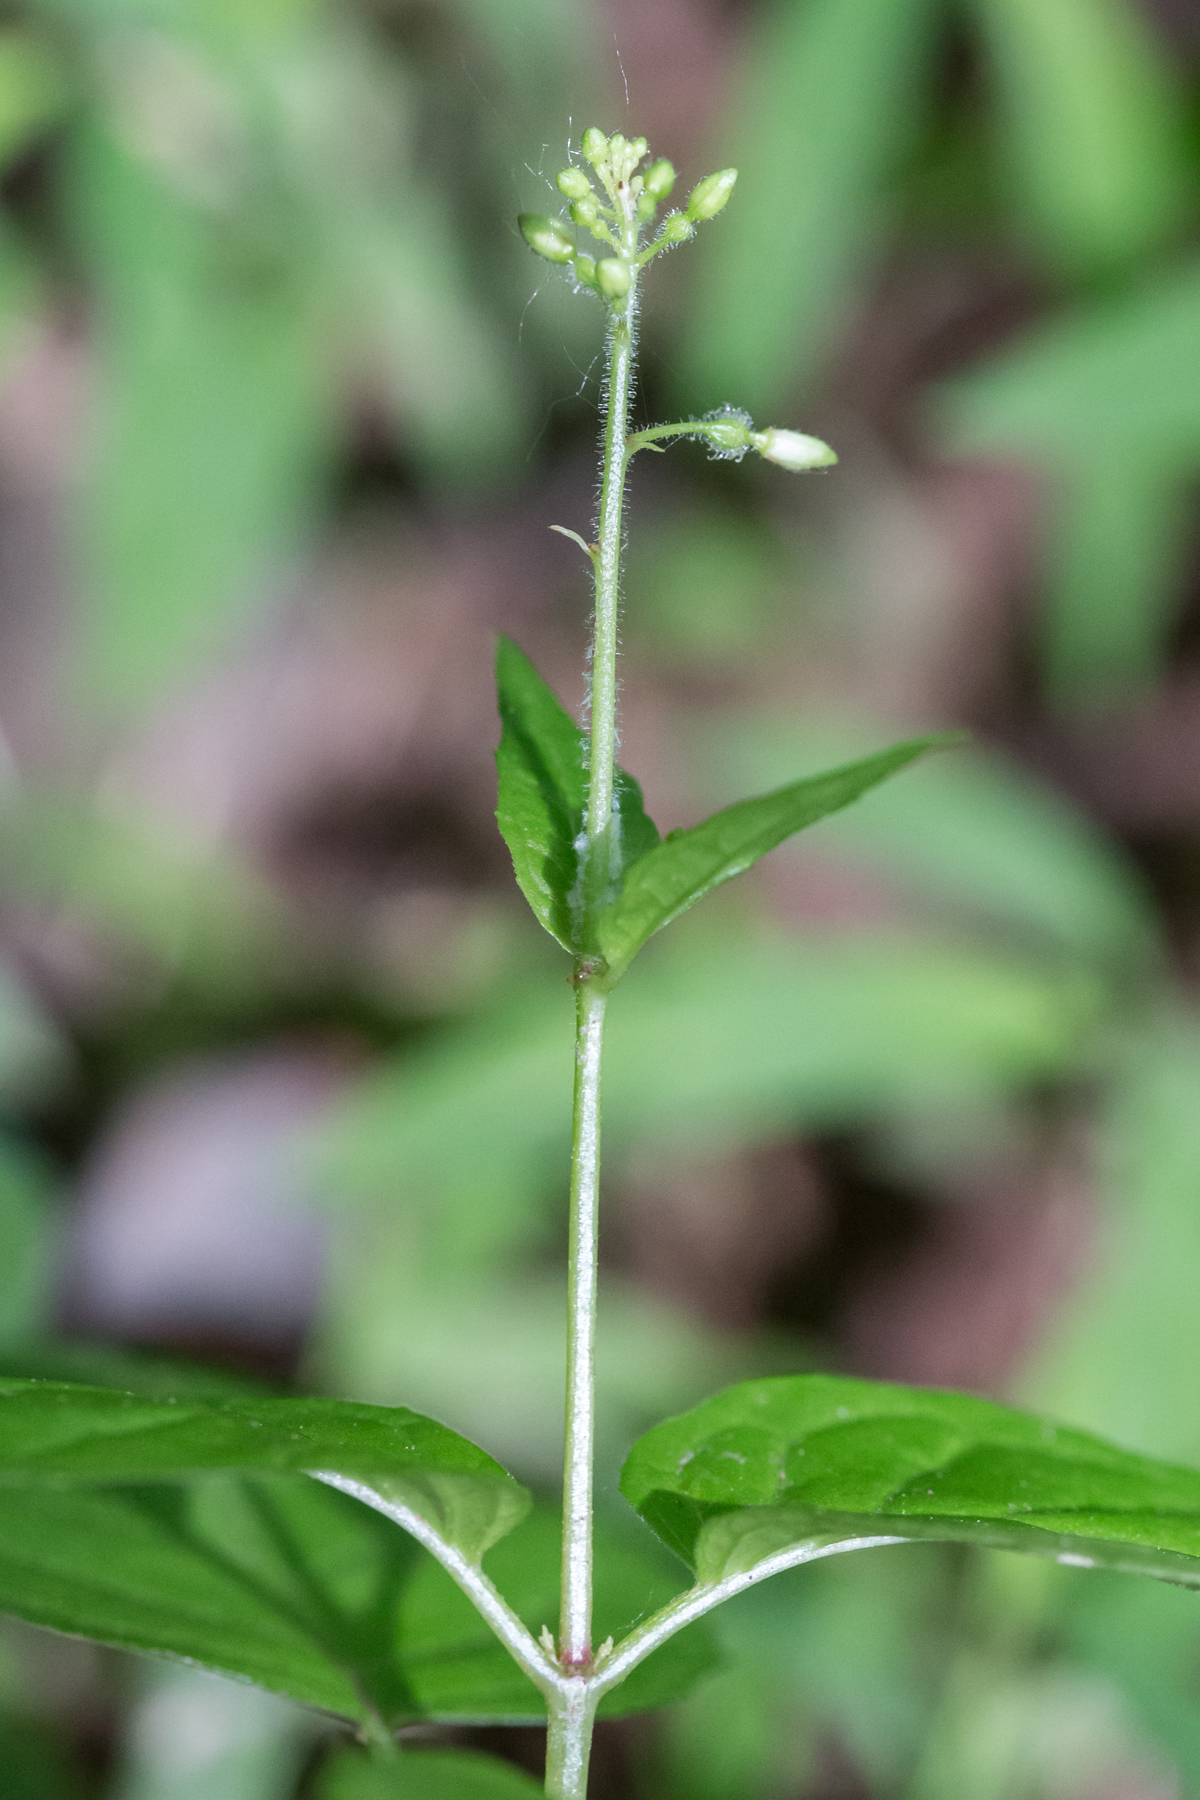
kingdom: Plantae
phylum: Tracheophyta
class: Magnoliopsida
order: Myrtales
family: Onagraceae
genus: Circaea
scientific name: Circaea canadensis
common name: Broad-leaved enchanter's nightshade
